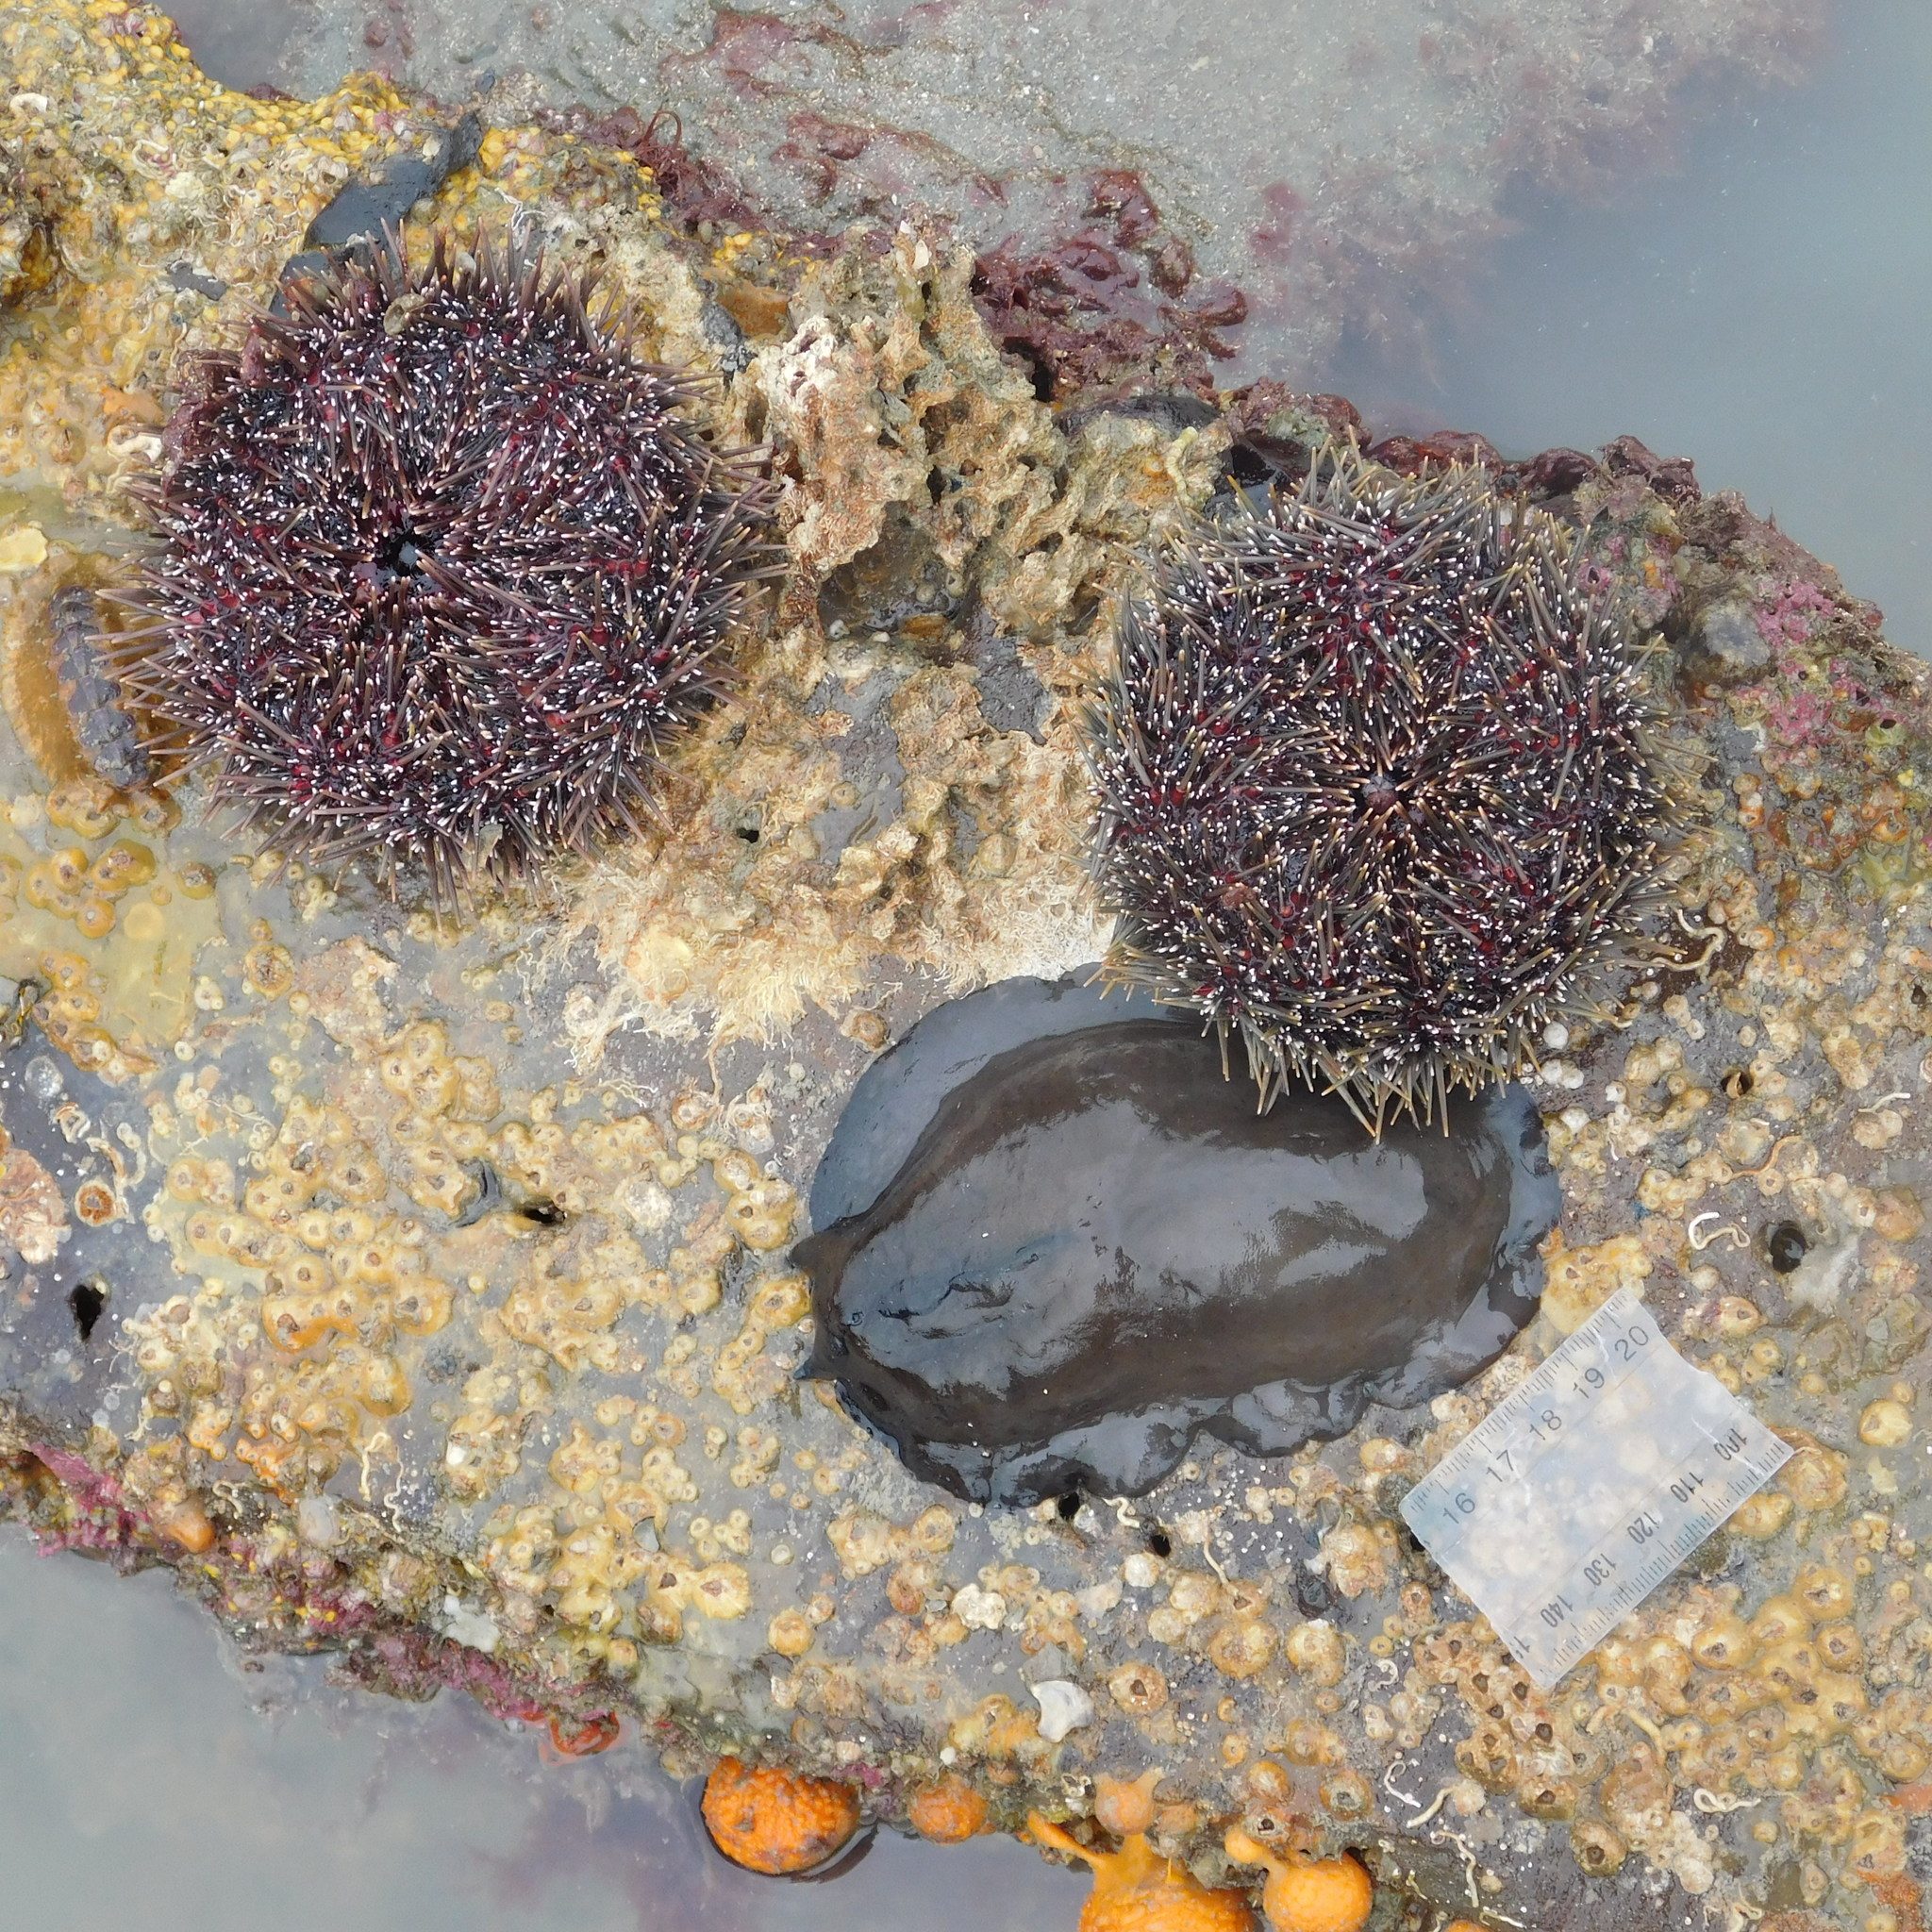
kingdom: Animalia
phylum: Echinodermata
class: Echinoidea
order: Camarodonta
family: Echinometridae
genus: Evechinus
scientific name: Evechinus chloroticus
